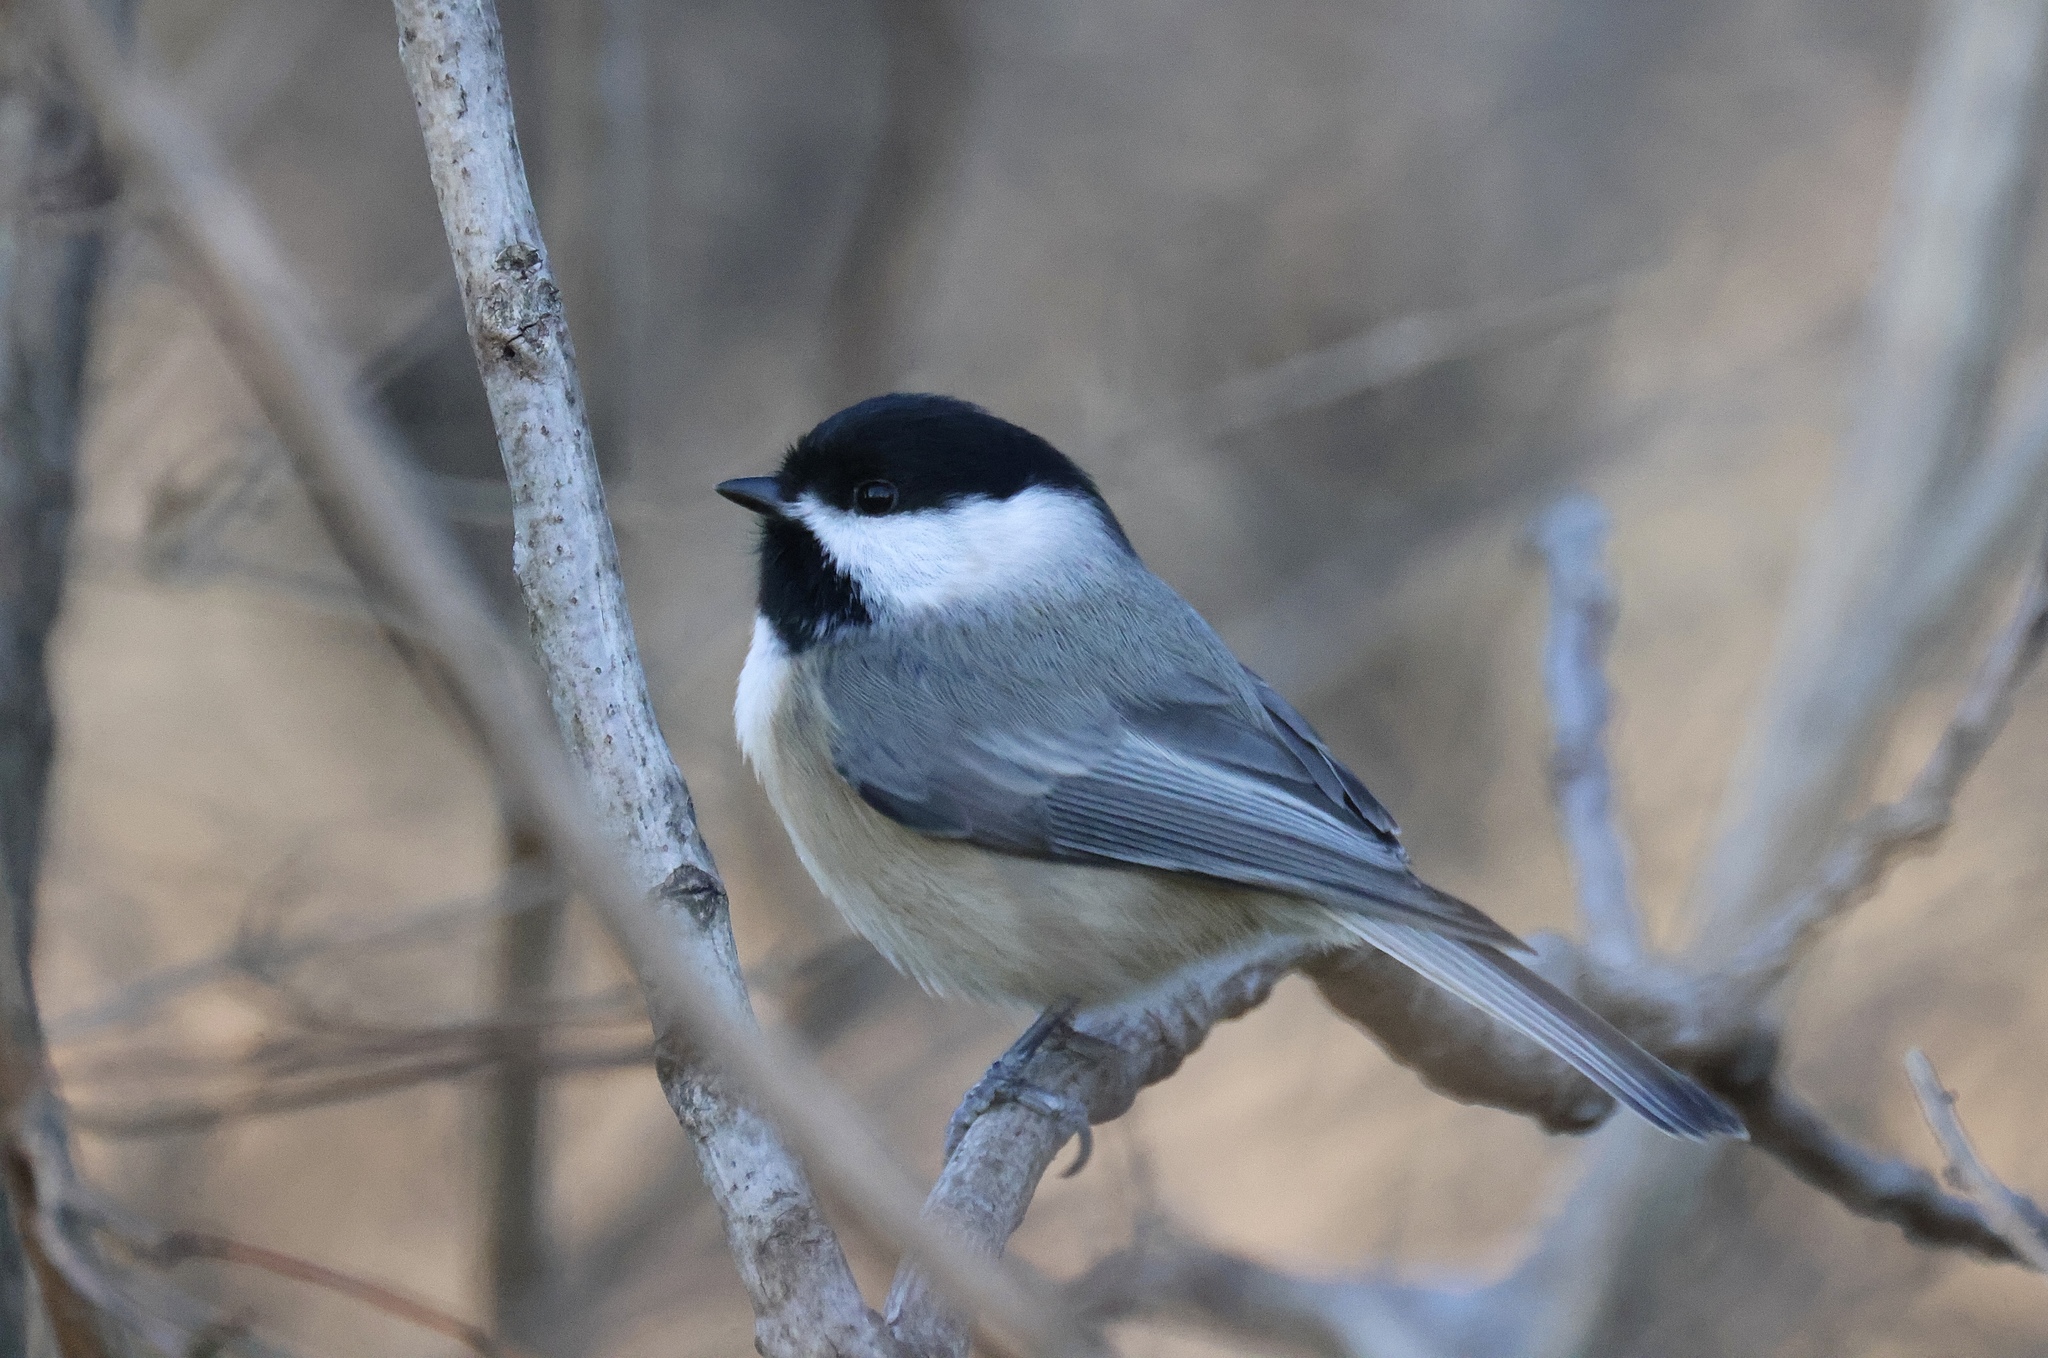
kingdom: Animalia
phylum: Chordata
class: Aves
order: Passeriformes
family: Paridae
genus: Poecile
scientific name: Poecile carolinensis
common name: Carolina chickadee
